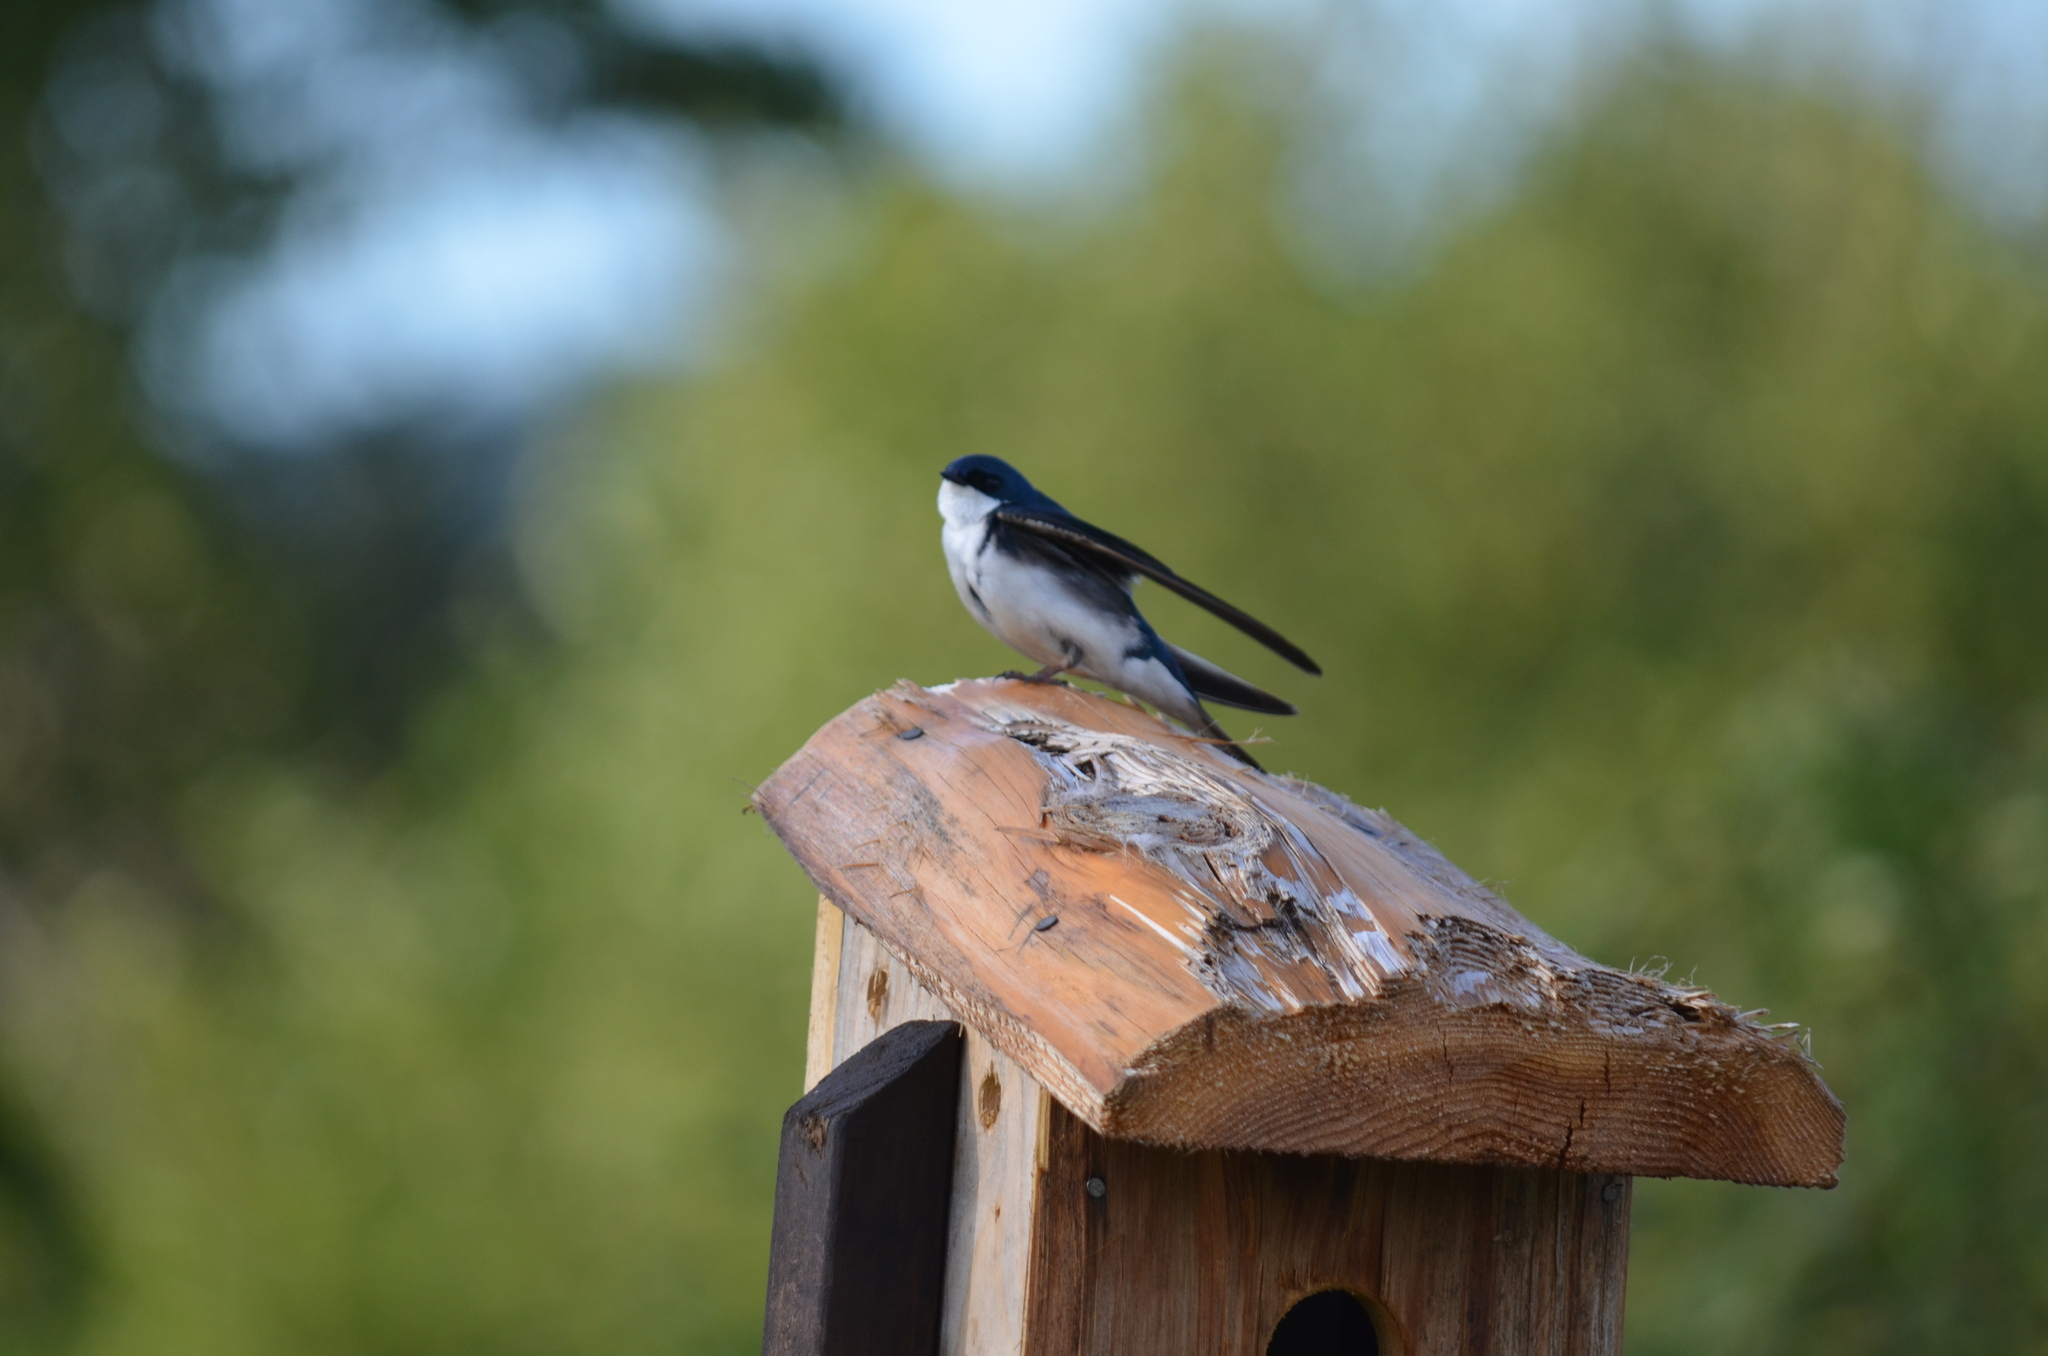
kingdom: Animalia
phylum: Chordata
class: Aves
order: Passeriformes
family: Hirundinidae
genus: Tachycineta
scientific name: Tachycineta bicolor
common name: Tree swallow
